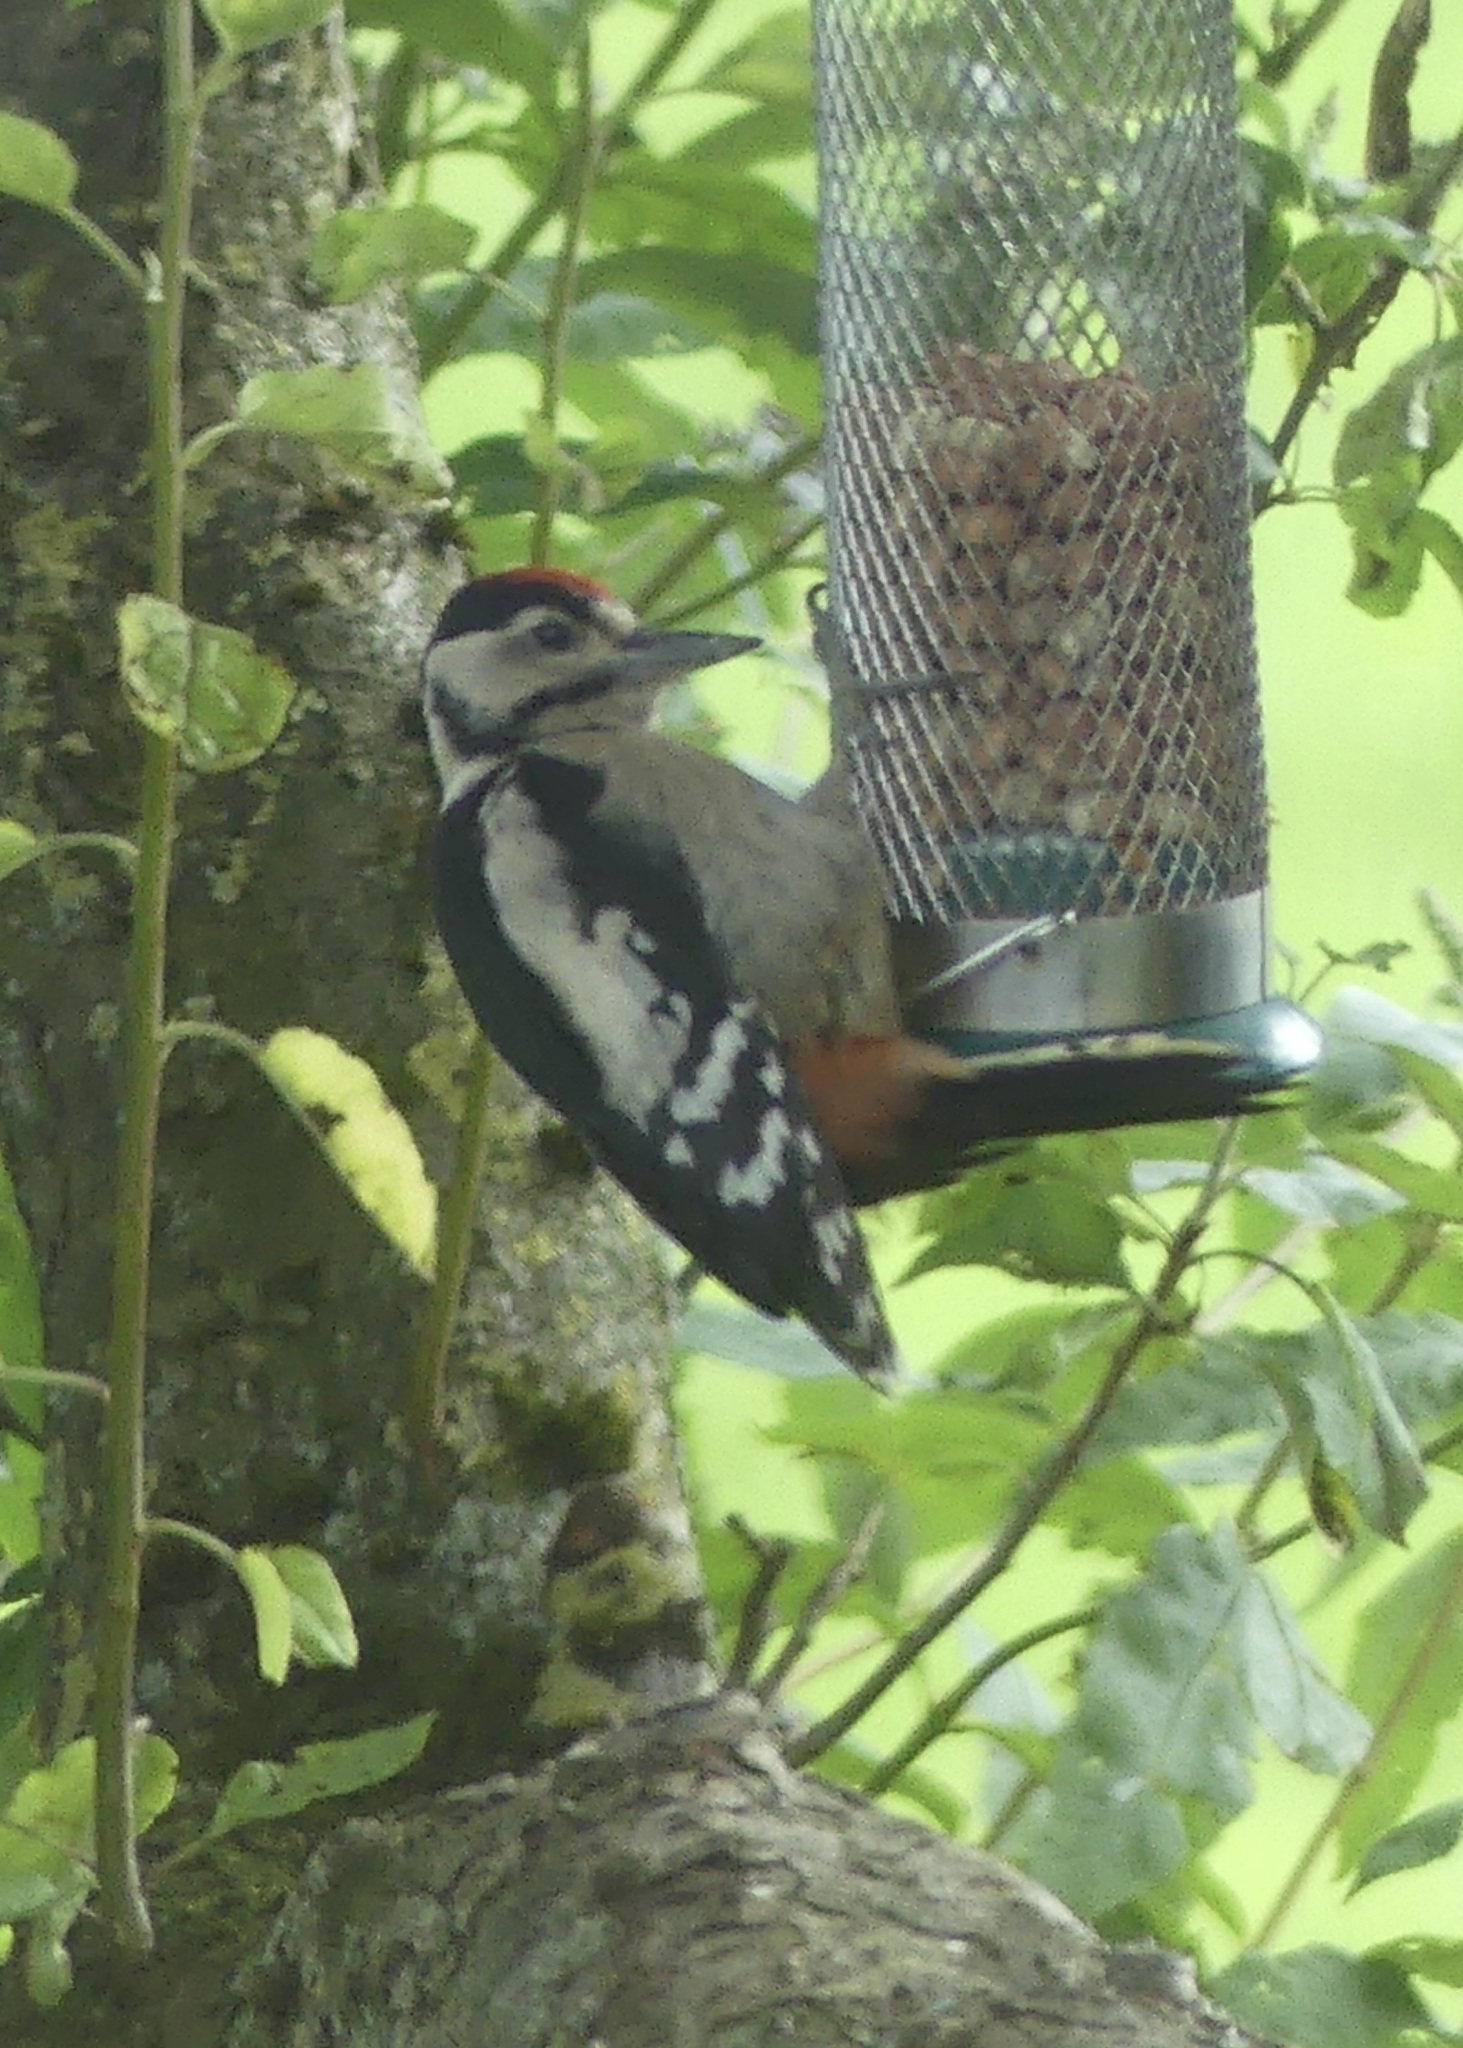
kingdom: Animalia
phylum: Chordata
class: Aves
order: Piciformes
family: Picidae
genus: Dendrocopos
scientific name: Dendrocopos major
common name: Great spotted woodpecker
